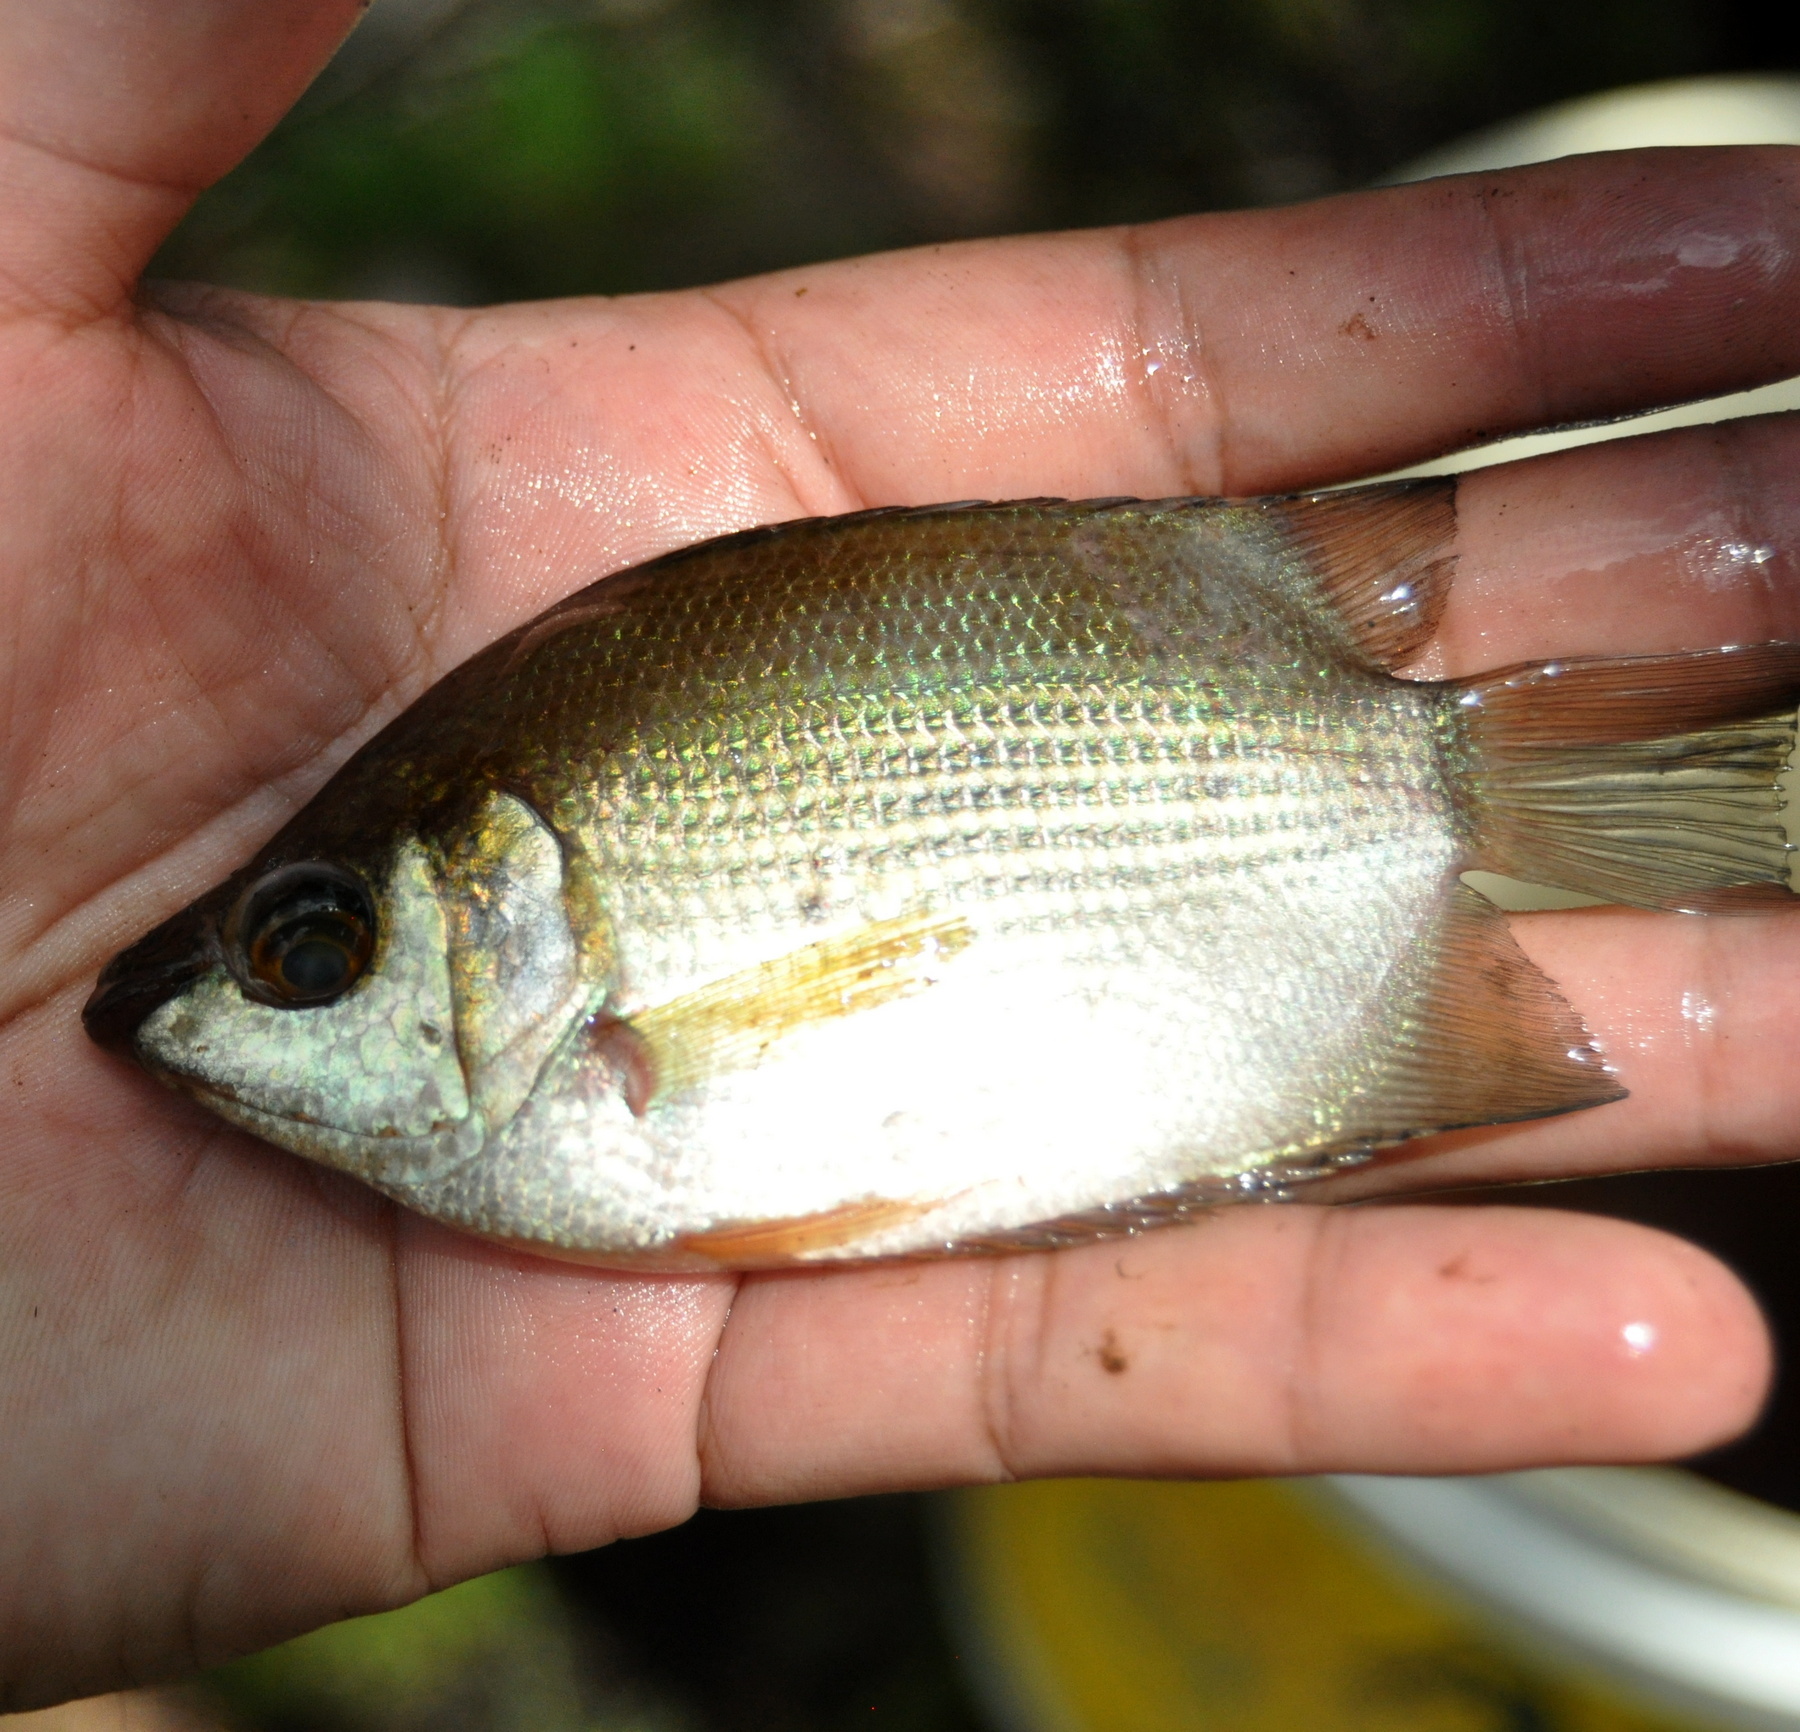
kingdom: Animalia
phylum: Chordata
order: Perciformes
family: Helostomatidae
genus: Helostoma
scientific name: Helostoma temminckii
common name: Kissing gourami
